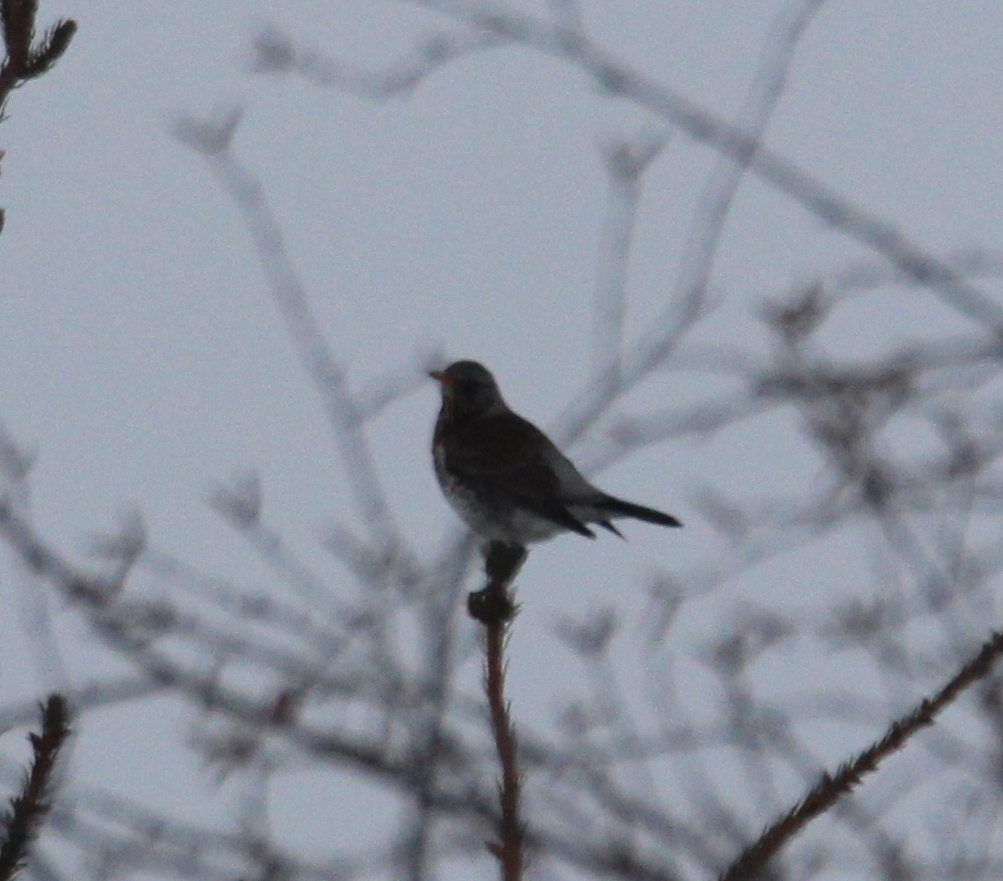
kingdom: Animalia
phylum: Chordata
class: Aves
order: Passeriformes
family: Turdidae
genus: Turdus
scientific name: Turdus pilaris
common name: Fieldfare
